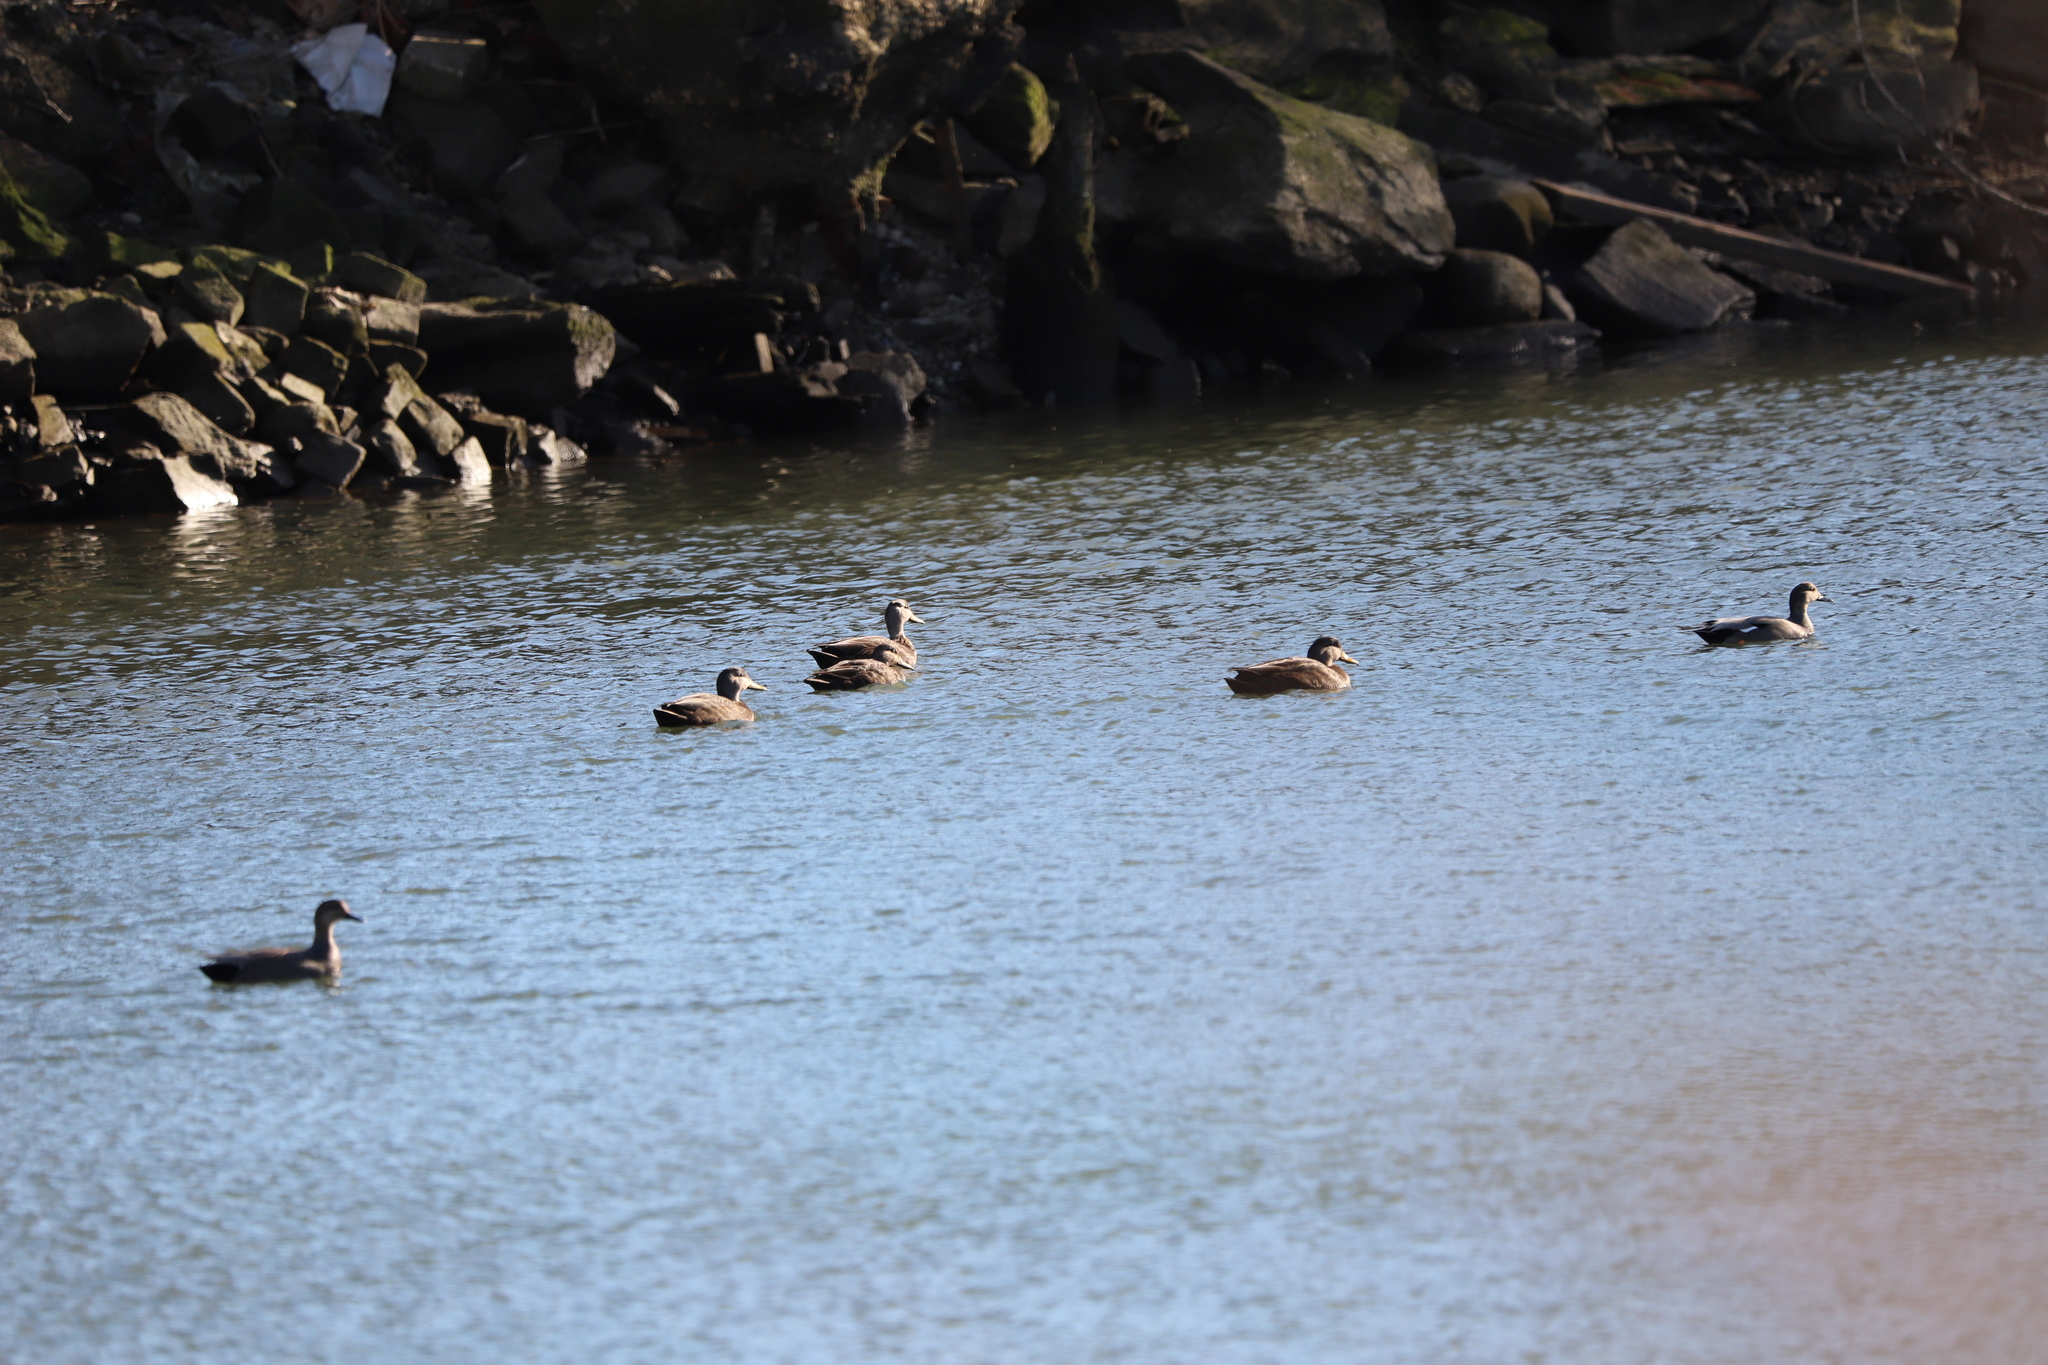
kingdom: Animalia
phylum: Chordata
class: Aves
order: Anseriformes
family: Anatidae
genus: Mareca
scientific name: Mareca strepera
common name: Gadwall
